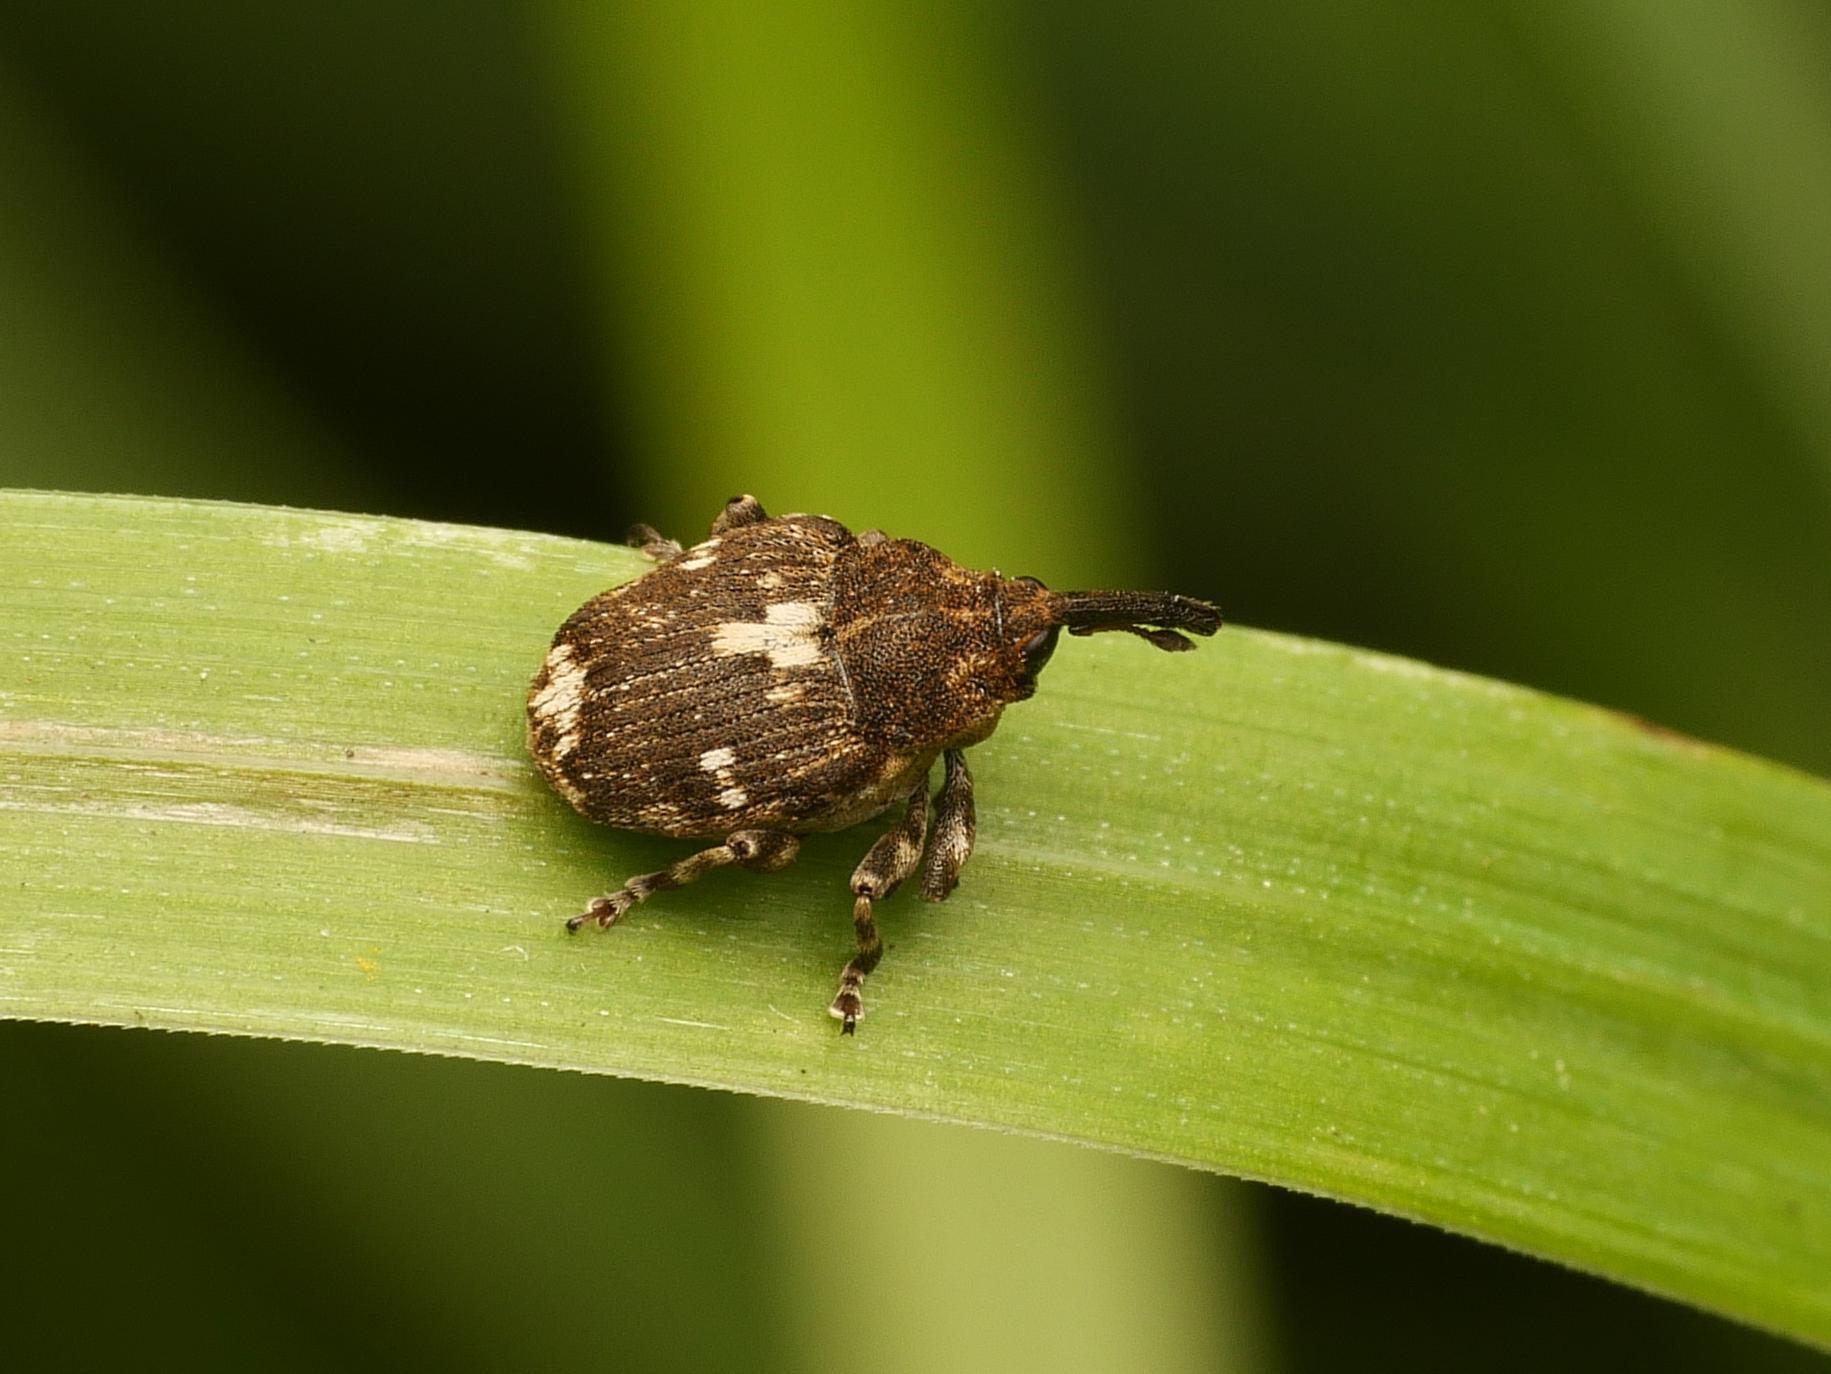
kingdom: Animalia
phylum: Arthropoda
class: Insecta
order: Coleoptera
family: Curculionidae
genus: Mogulones
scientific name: Mogulones crucifer
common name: Hound's tongue root weevil
